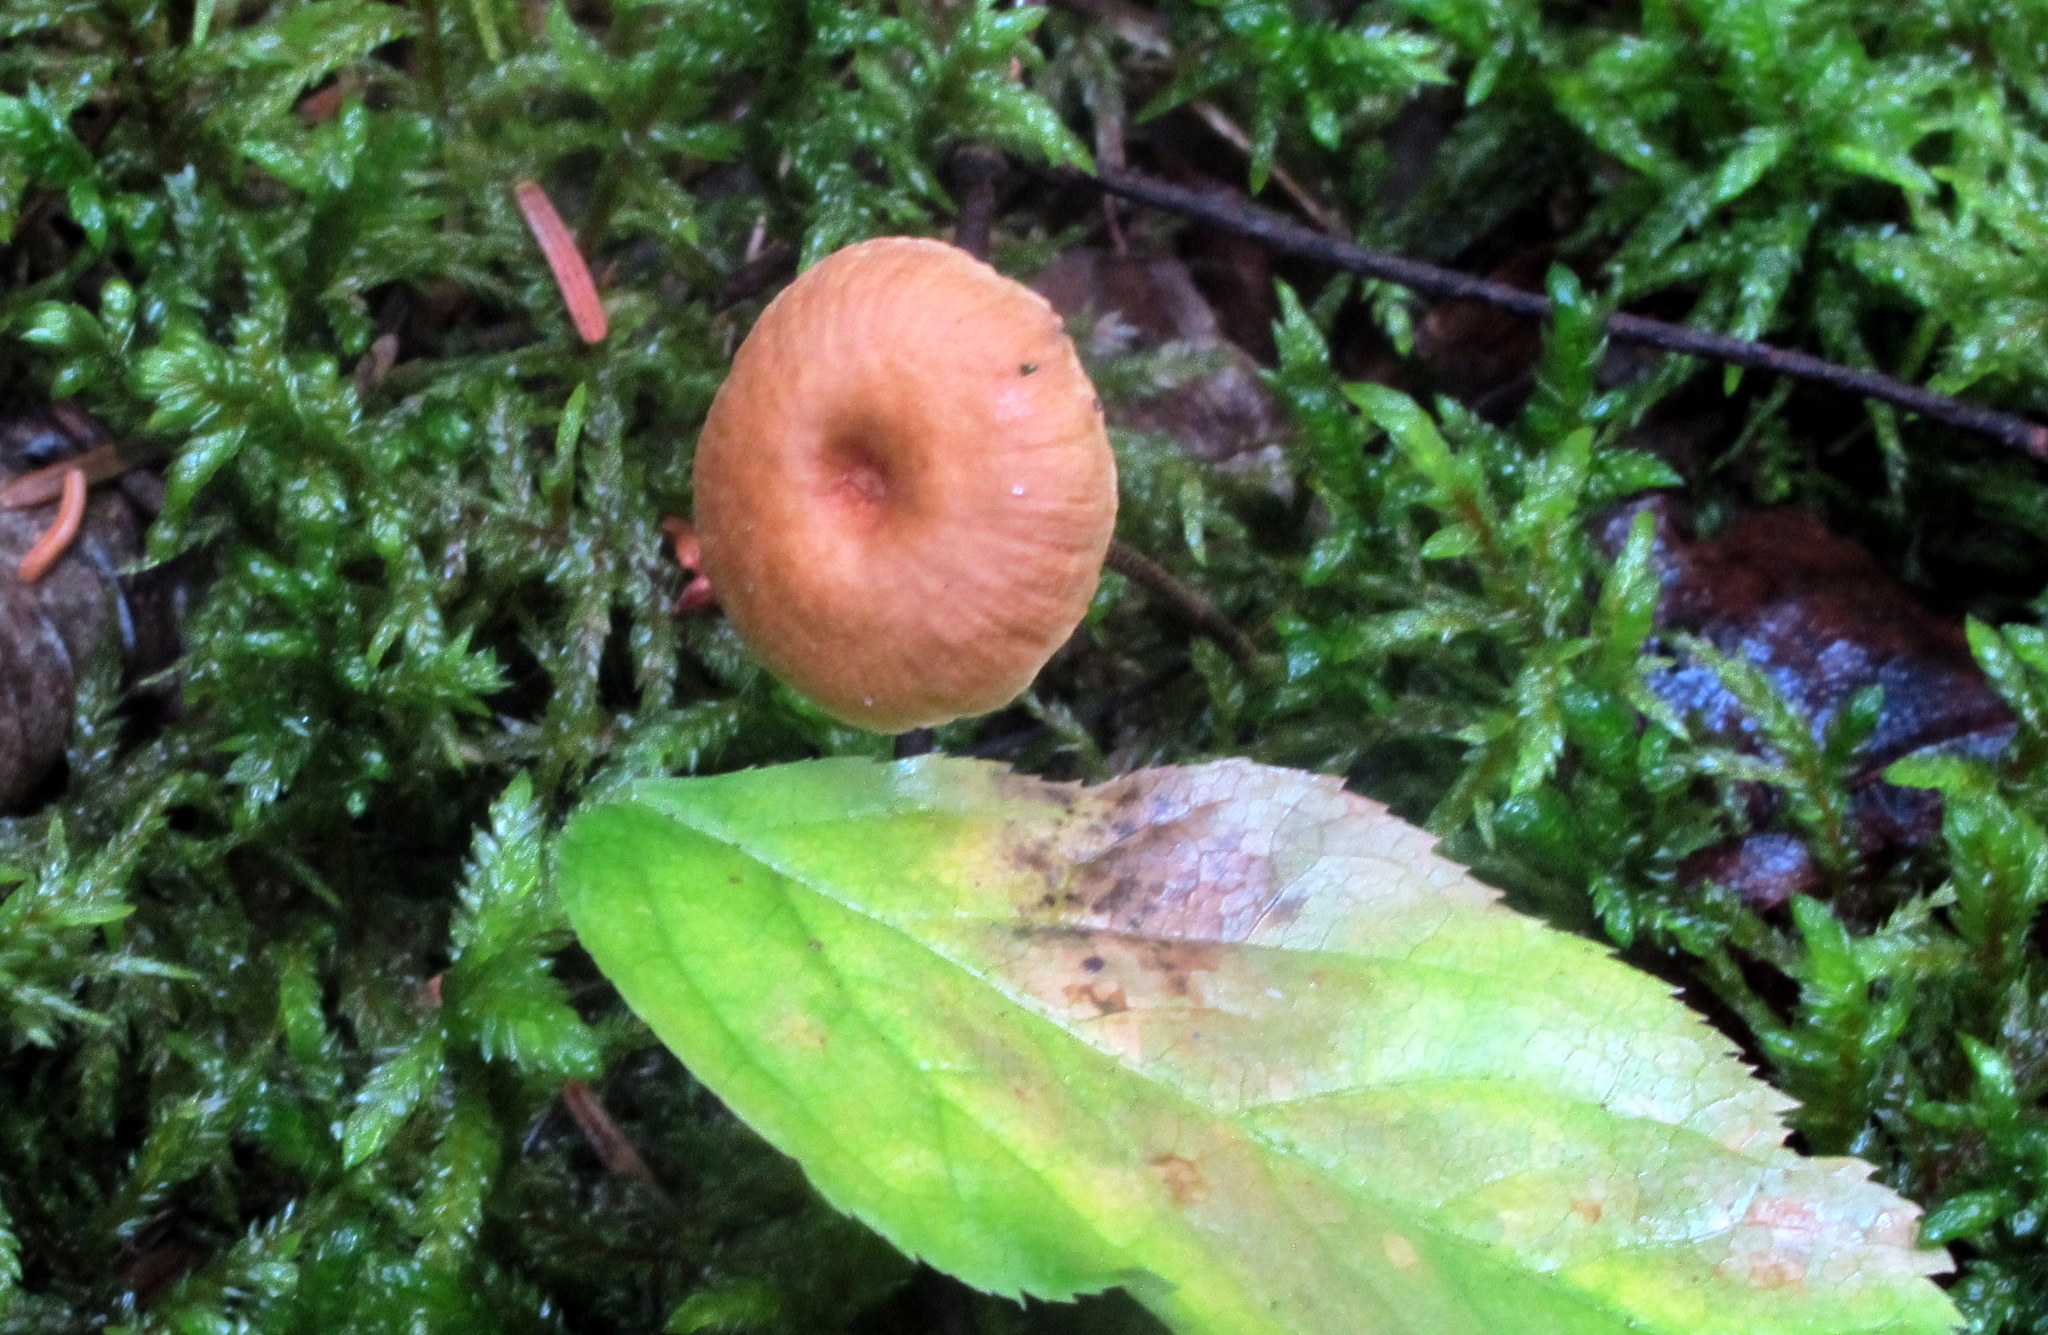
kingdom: Fungi
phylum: Basidiomycota
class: Agaricomycetes
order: Agaricales
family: Mycenaceae
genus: Xeromphalina
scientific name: Xeromphalina cornui
